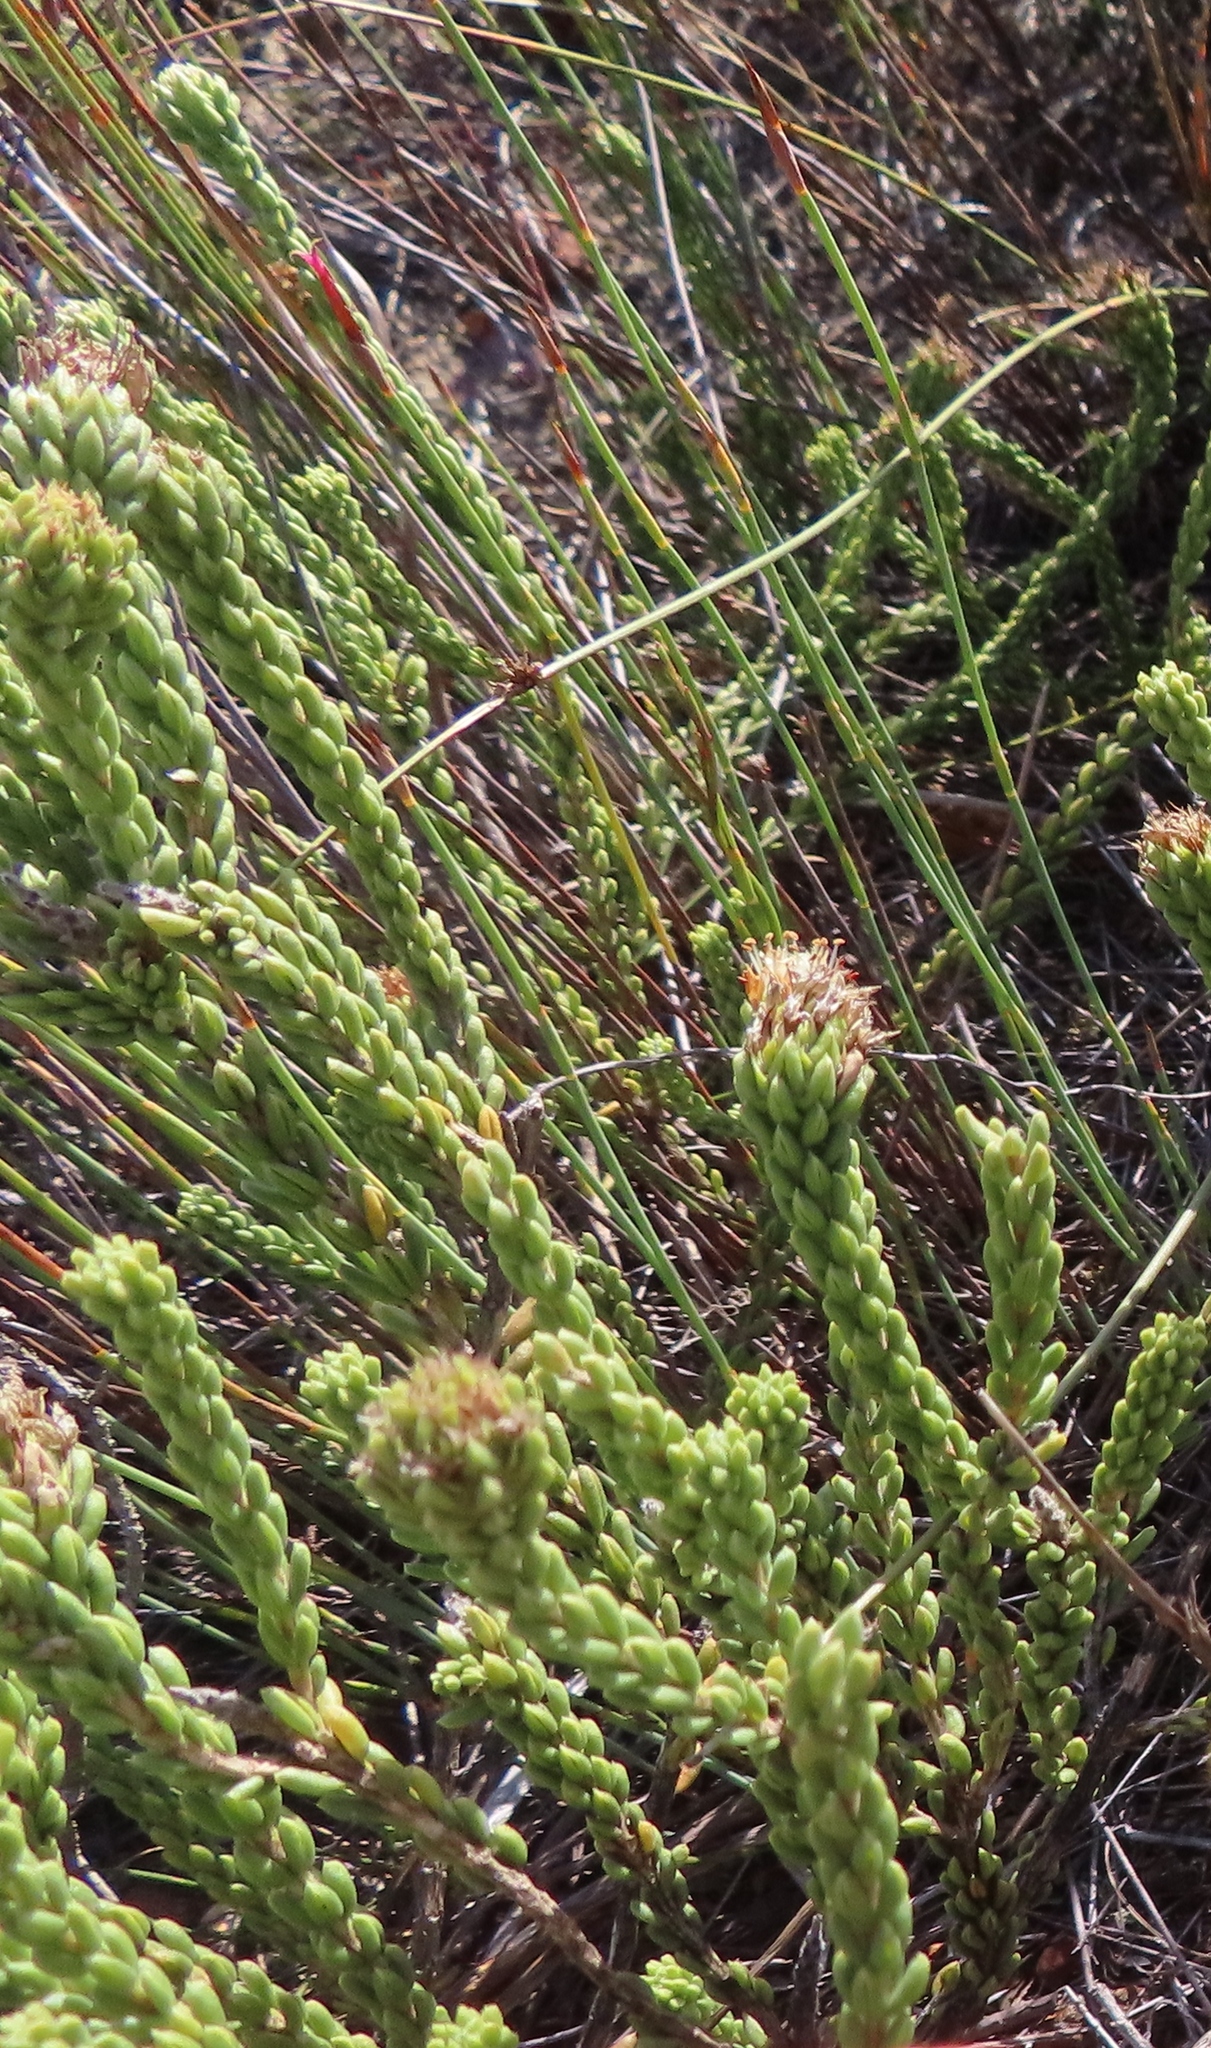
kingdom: Plantae
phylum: Tracheophyta
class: Magnoliopsida
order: Lamiales
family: Stilbaceae
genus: Campylostachys
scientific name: Campylostachys cernua
